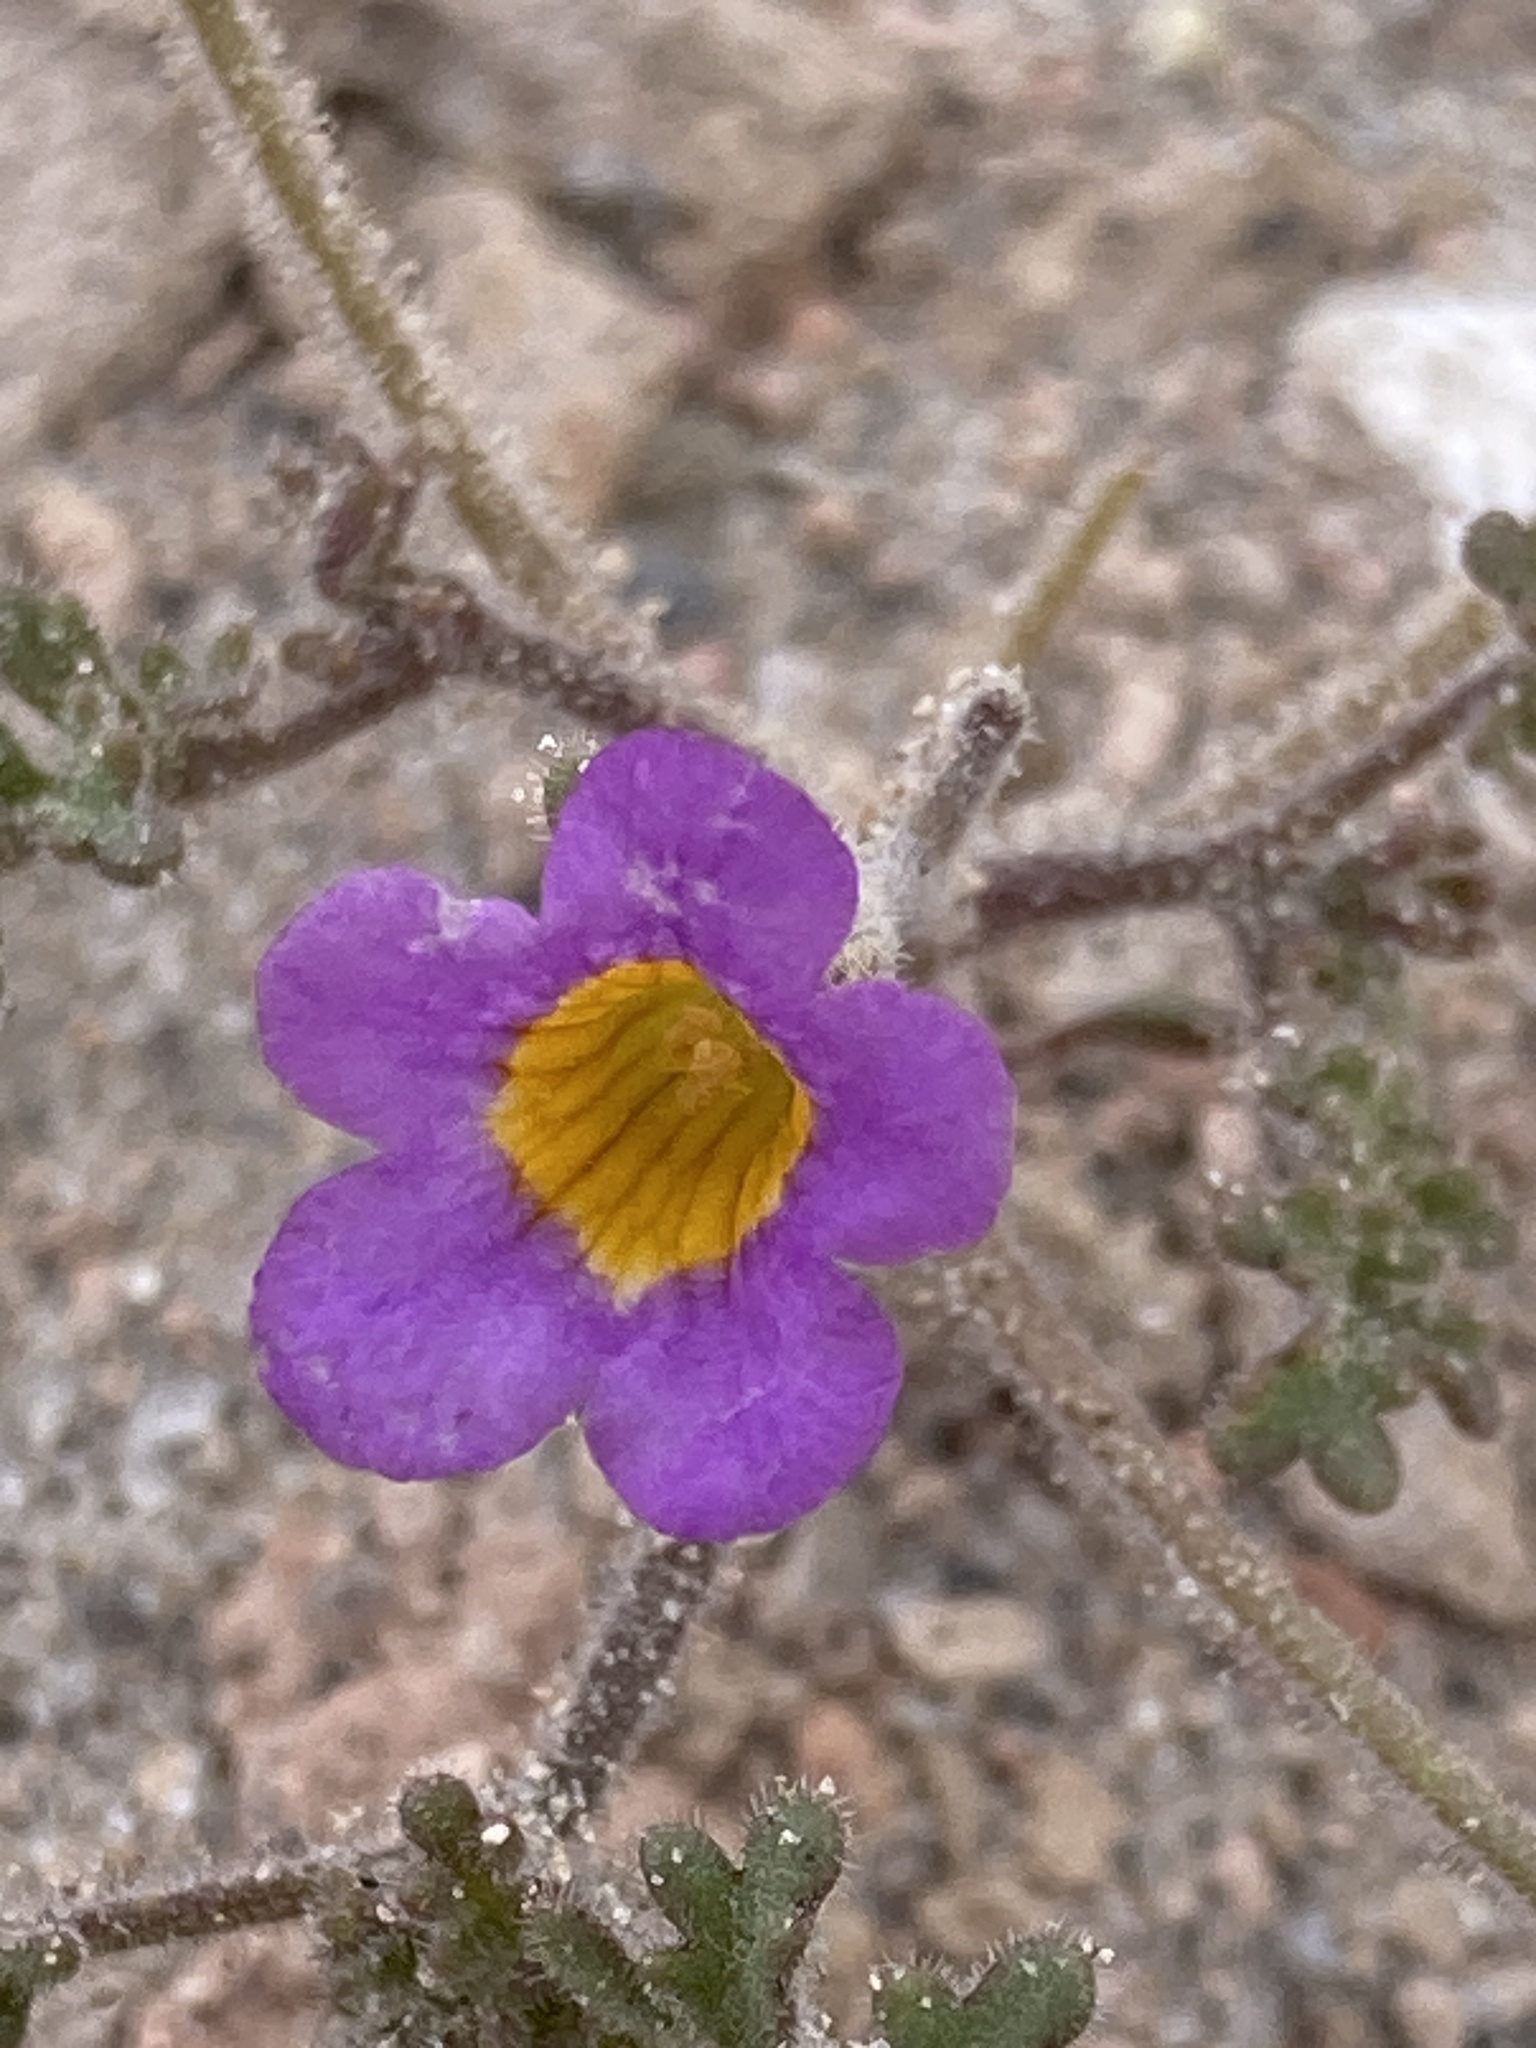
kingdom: Plantae
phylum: Tracheophyta
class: Magnoliopsida
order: Boraginales
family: Hydrophyllaceae
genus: Phacelia
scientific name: Phacelia bicolor
